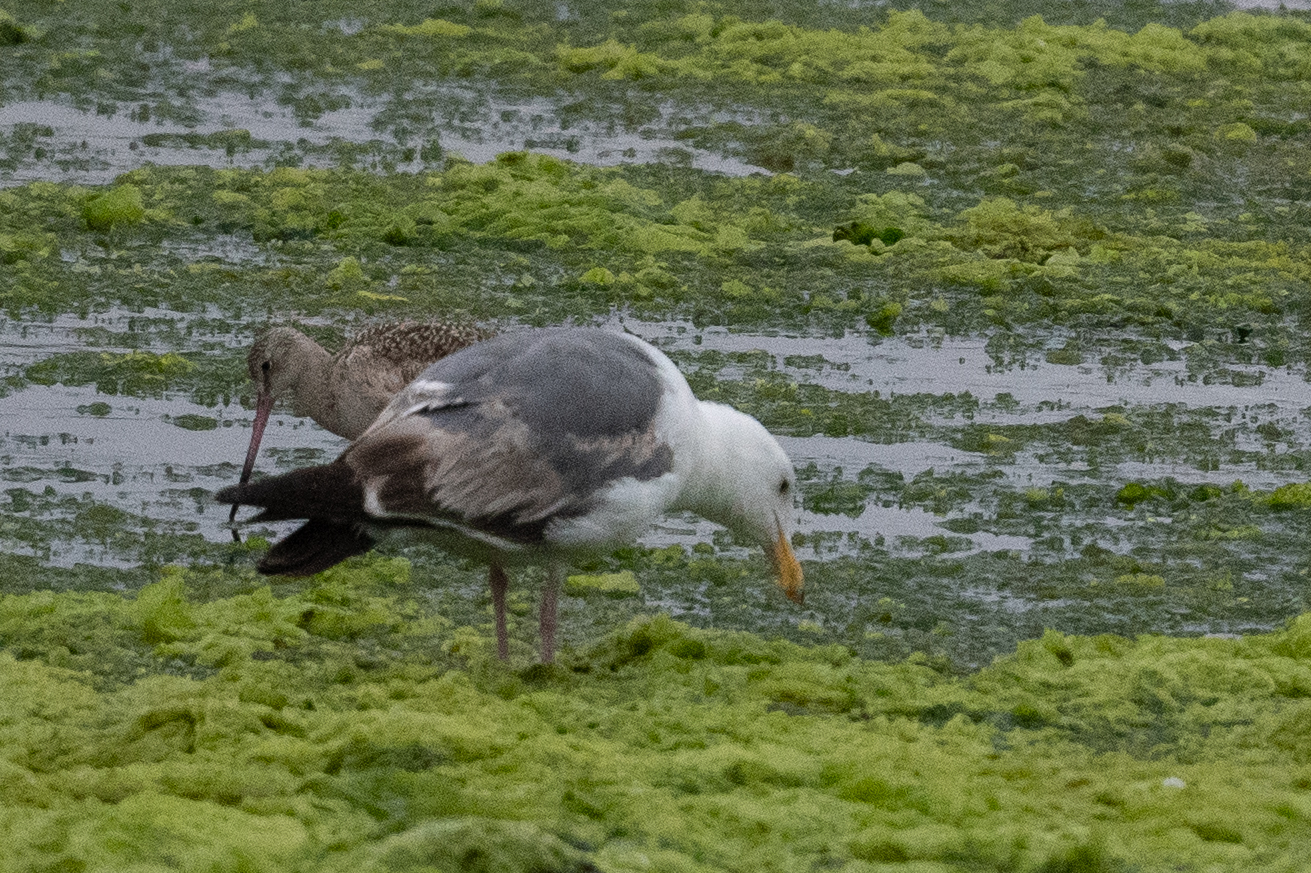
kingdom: Animalia
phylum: Chordata
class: Aves
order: Charadriiformes
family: Laridae
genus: Larus
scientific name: Larus occidentalis
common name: Western gull
